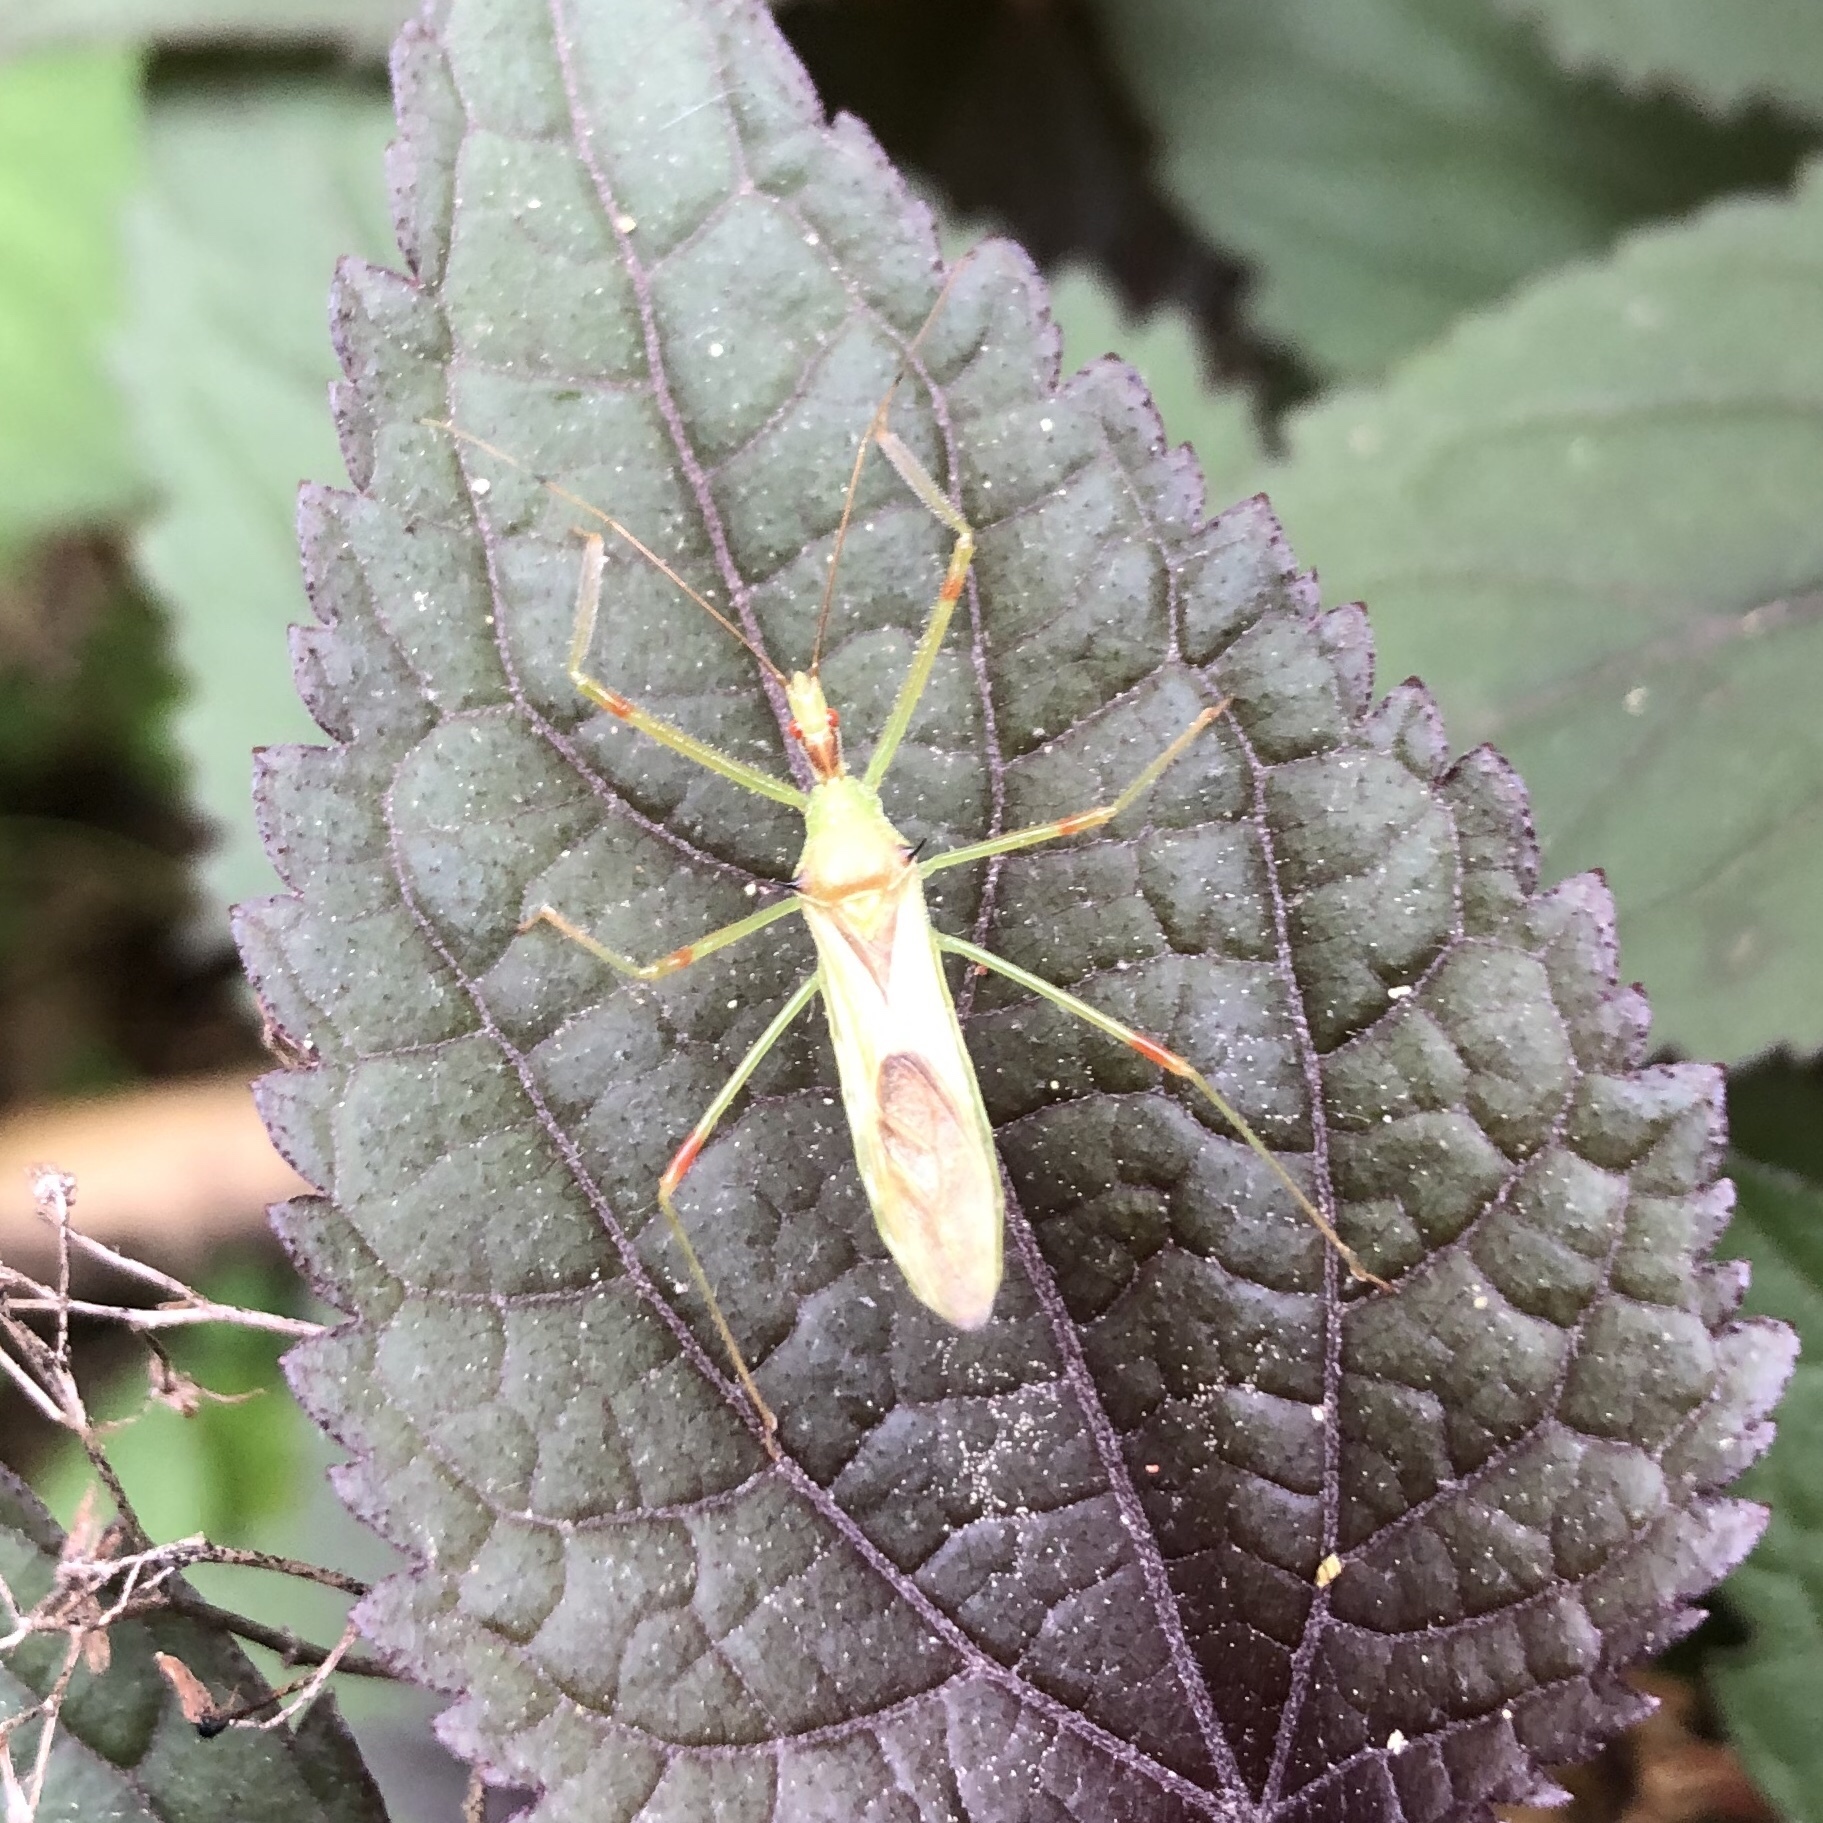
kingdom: Animalia
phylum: Arthropoda
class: Insecta
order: Hemiptera
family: Reduviidae
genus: Zelus
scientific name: Zelus luridus
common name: Pale green assassin bug
